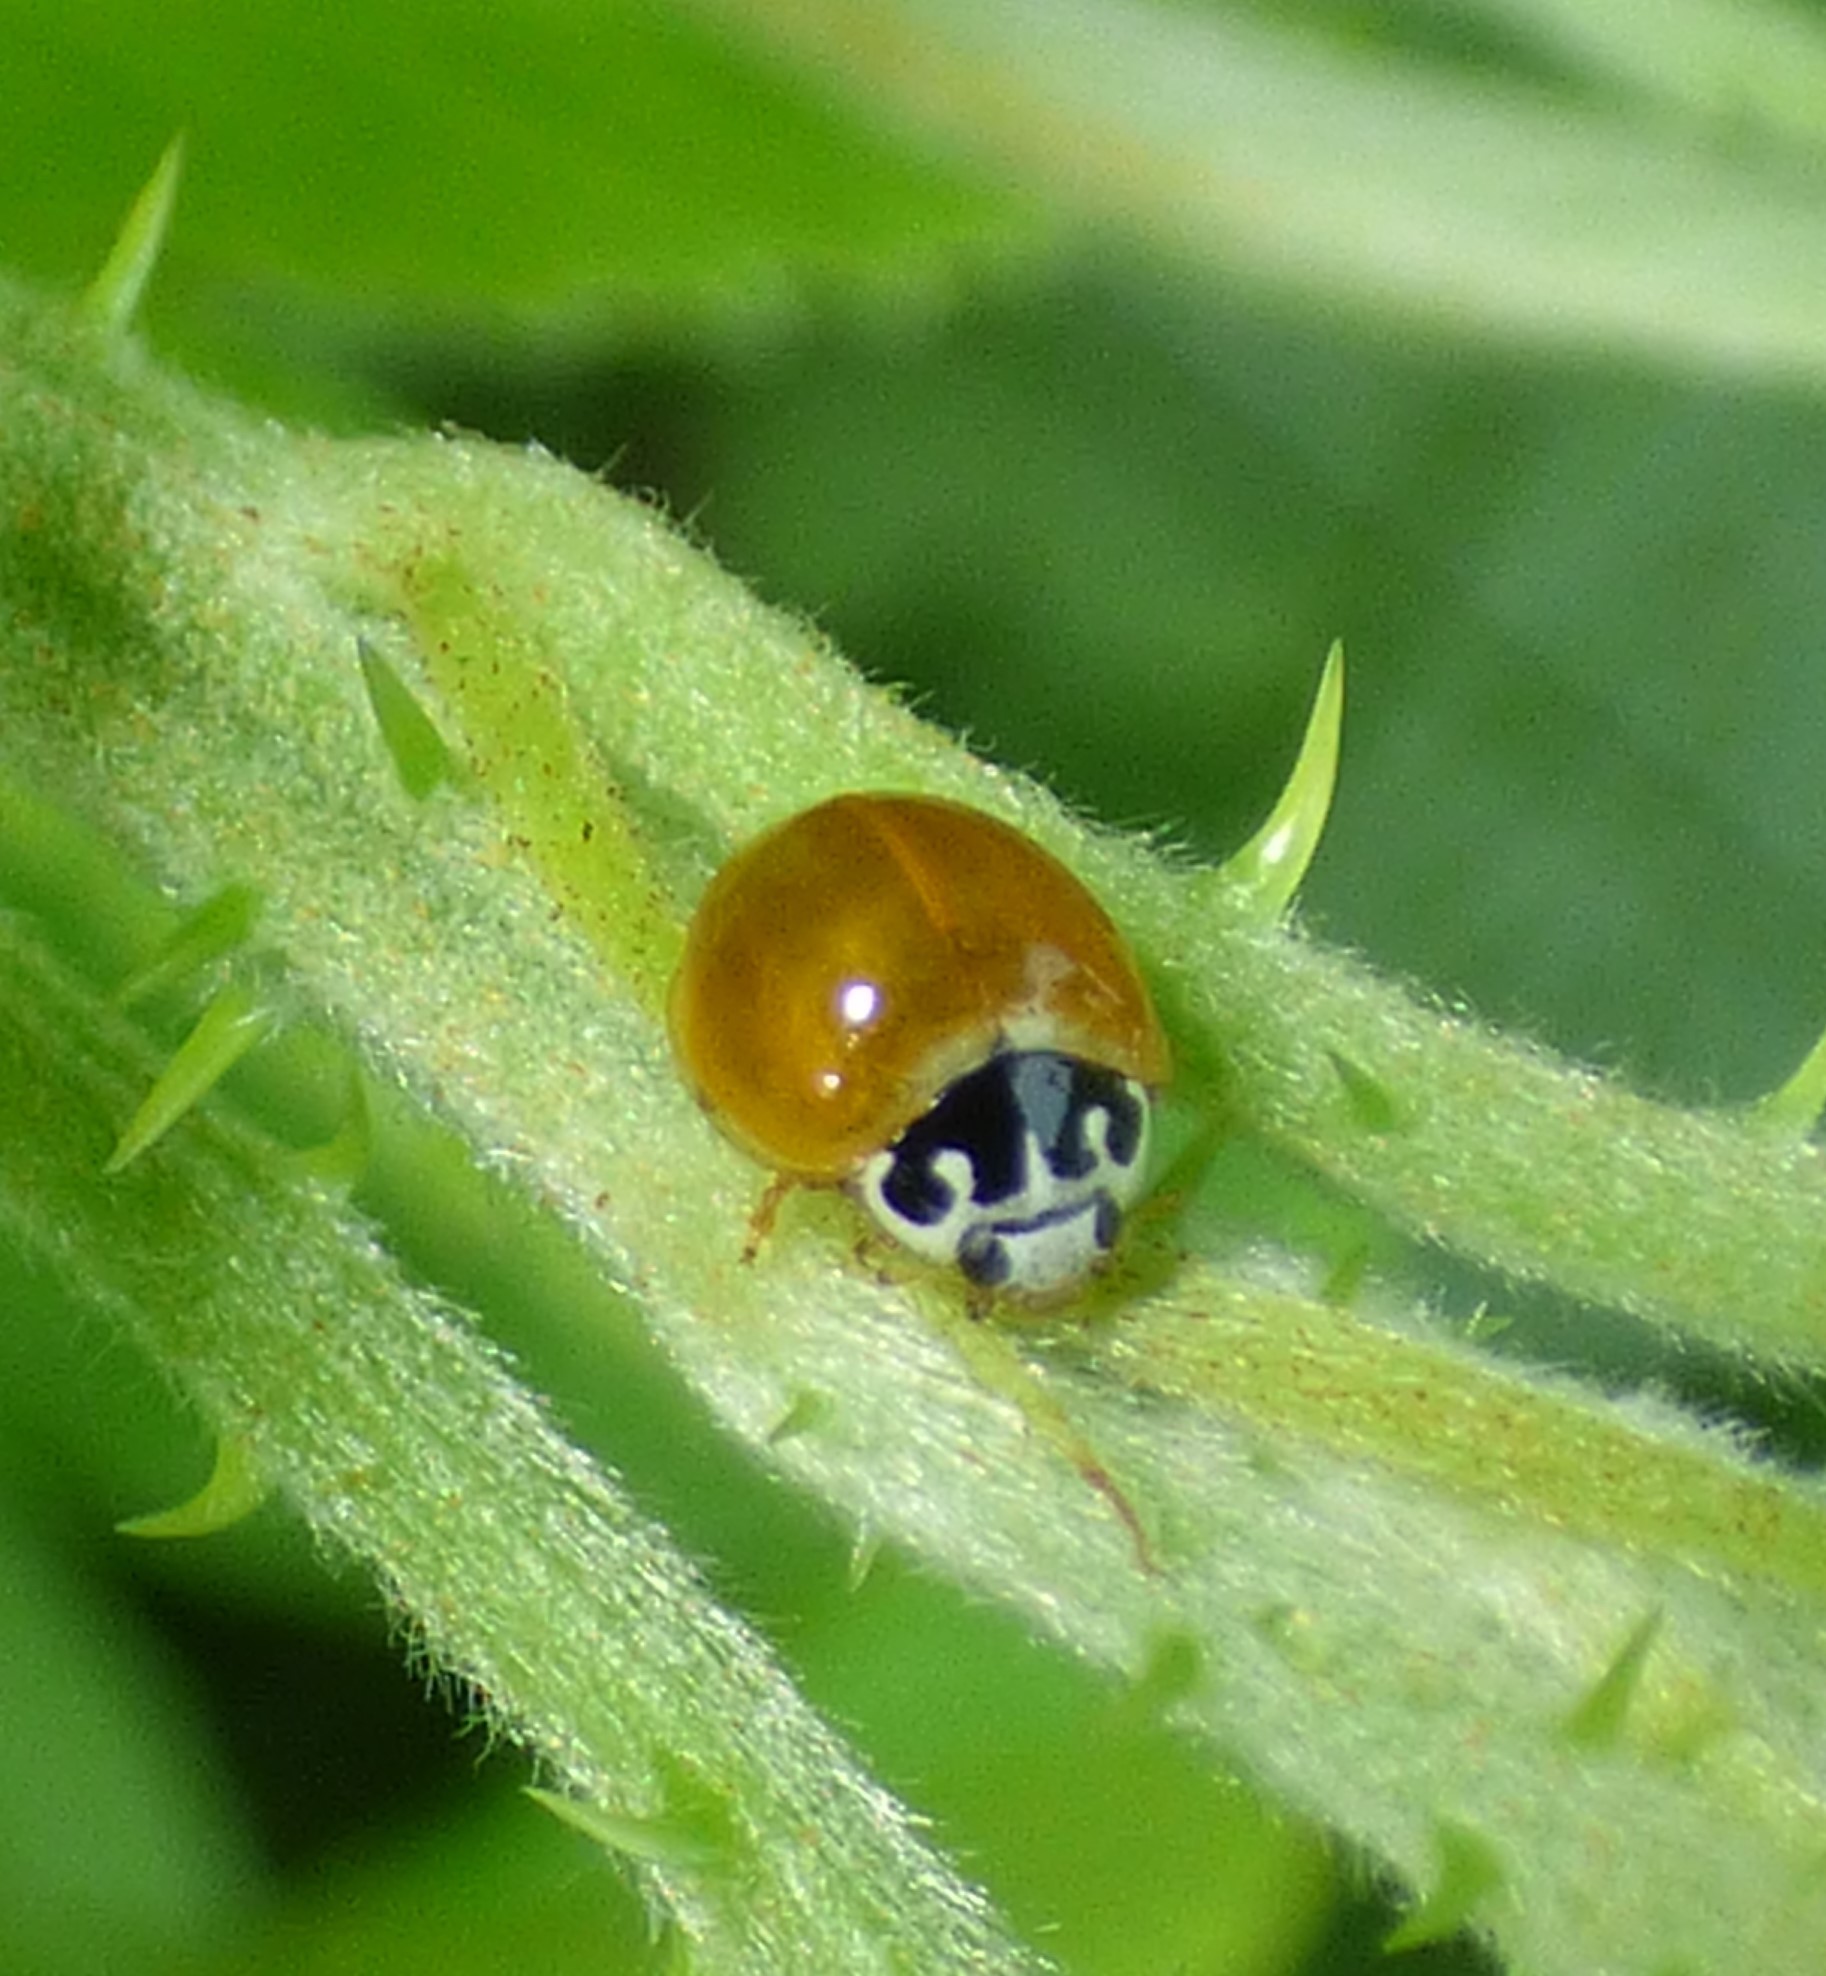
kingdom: Animalia
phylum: Arthropoda
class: Insecta
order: Coleoptera
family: Coccinellidae
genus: Cycloneda
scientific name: Cycloneda munda
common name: Polished lady beetle
